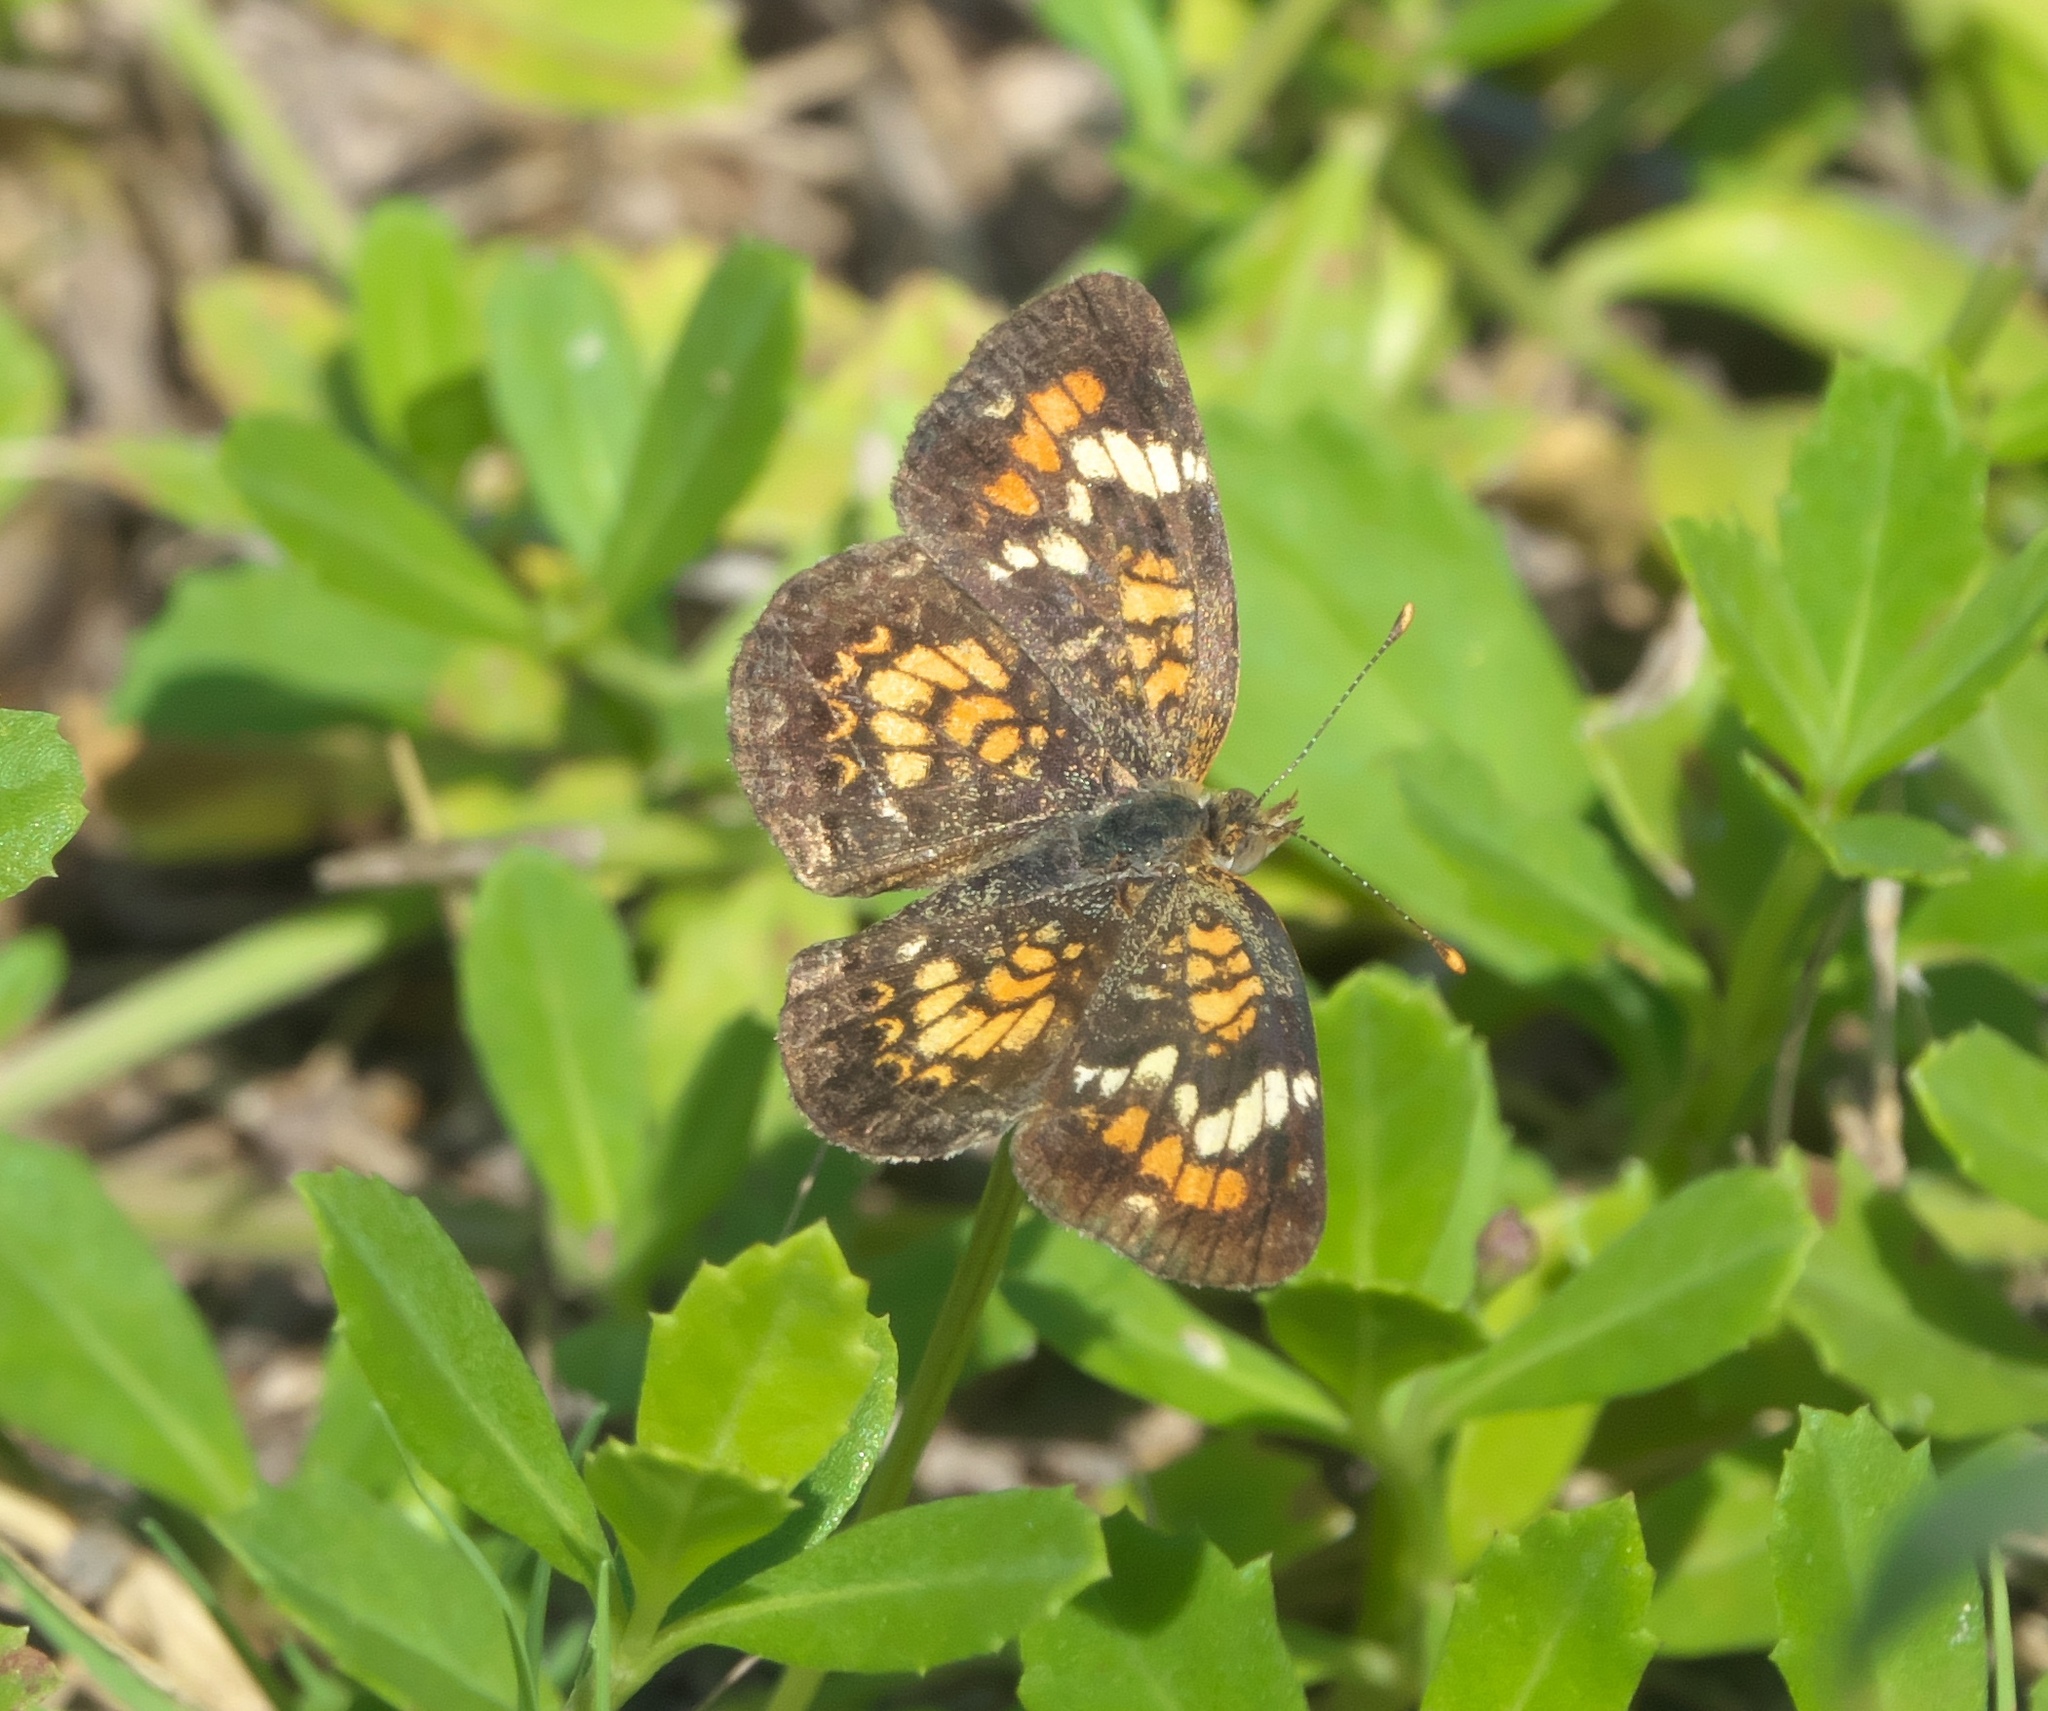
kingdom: Animalia
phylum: Arthropoda
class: Insecta
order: Lepidoptera
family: Nymphalidae
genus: Phyciodes
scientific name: Phyciodes phaon
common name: Phaon crescent
